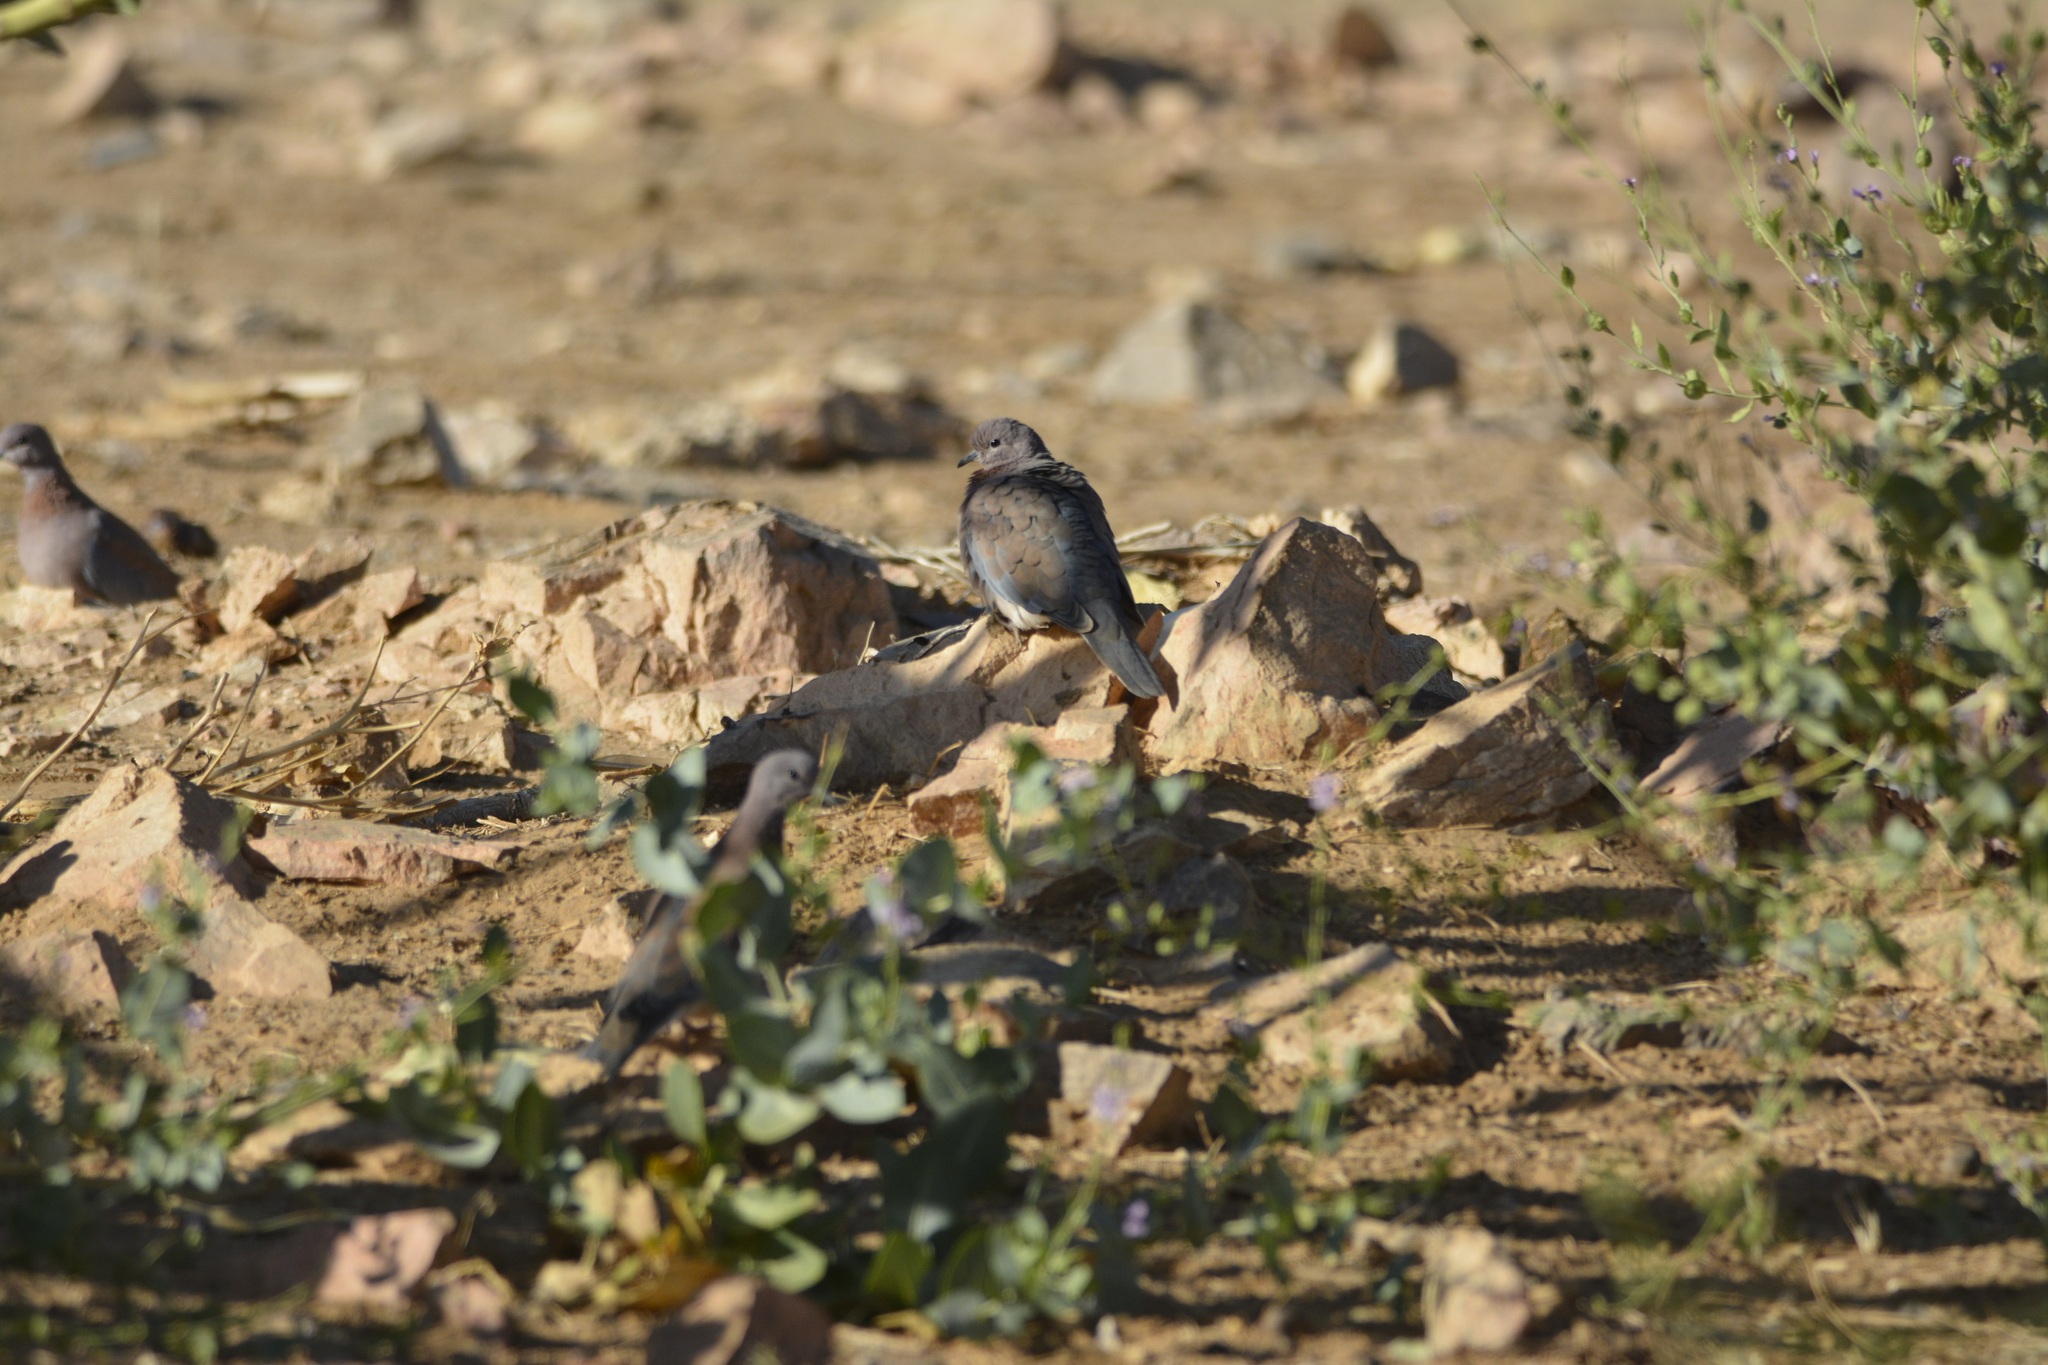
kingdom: Animalia
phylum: Chordata
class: Aves
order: Columbiformes
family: Columbidae
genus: Spilopelia
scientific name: Spilopelia senegalensis
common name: Laughing dove
